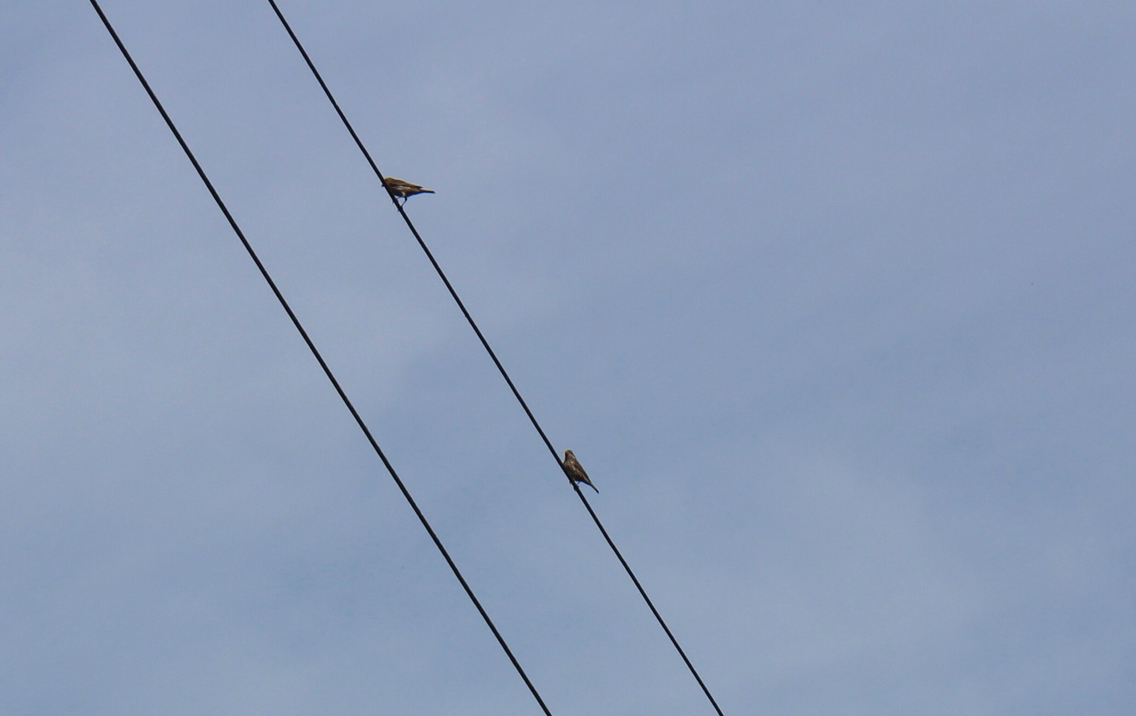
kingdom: Animalia
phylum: Chordata
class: Aves
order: Passeriformes
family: Fringillidae
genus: Haemorhous
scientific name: Haemorhous purpureus
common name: Purple finch
